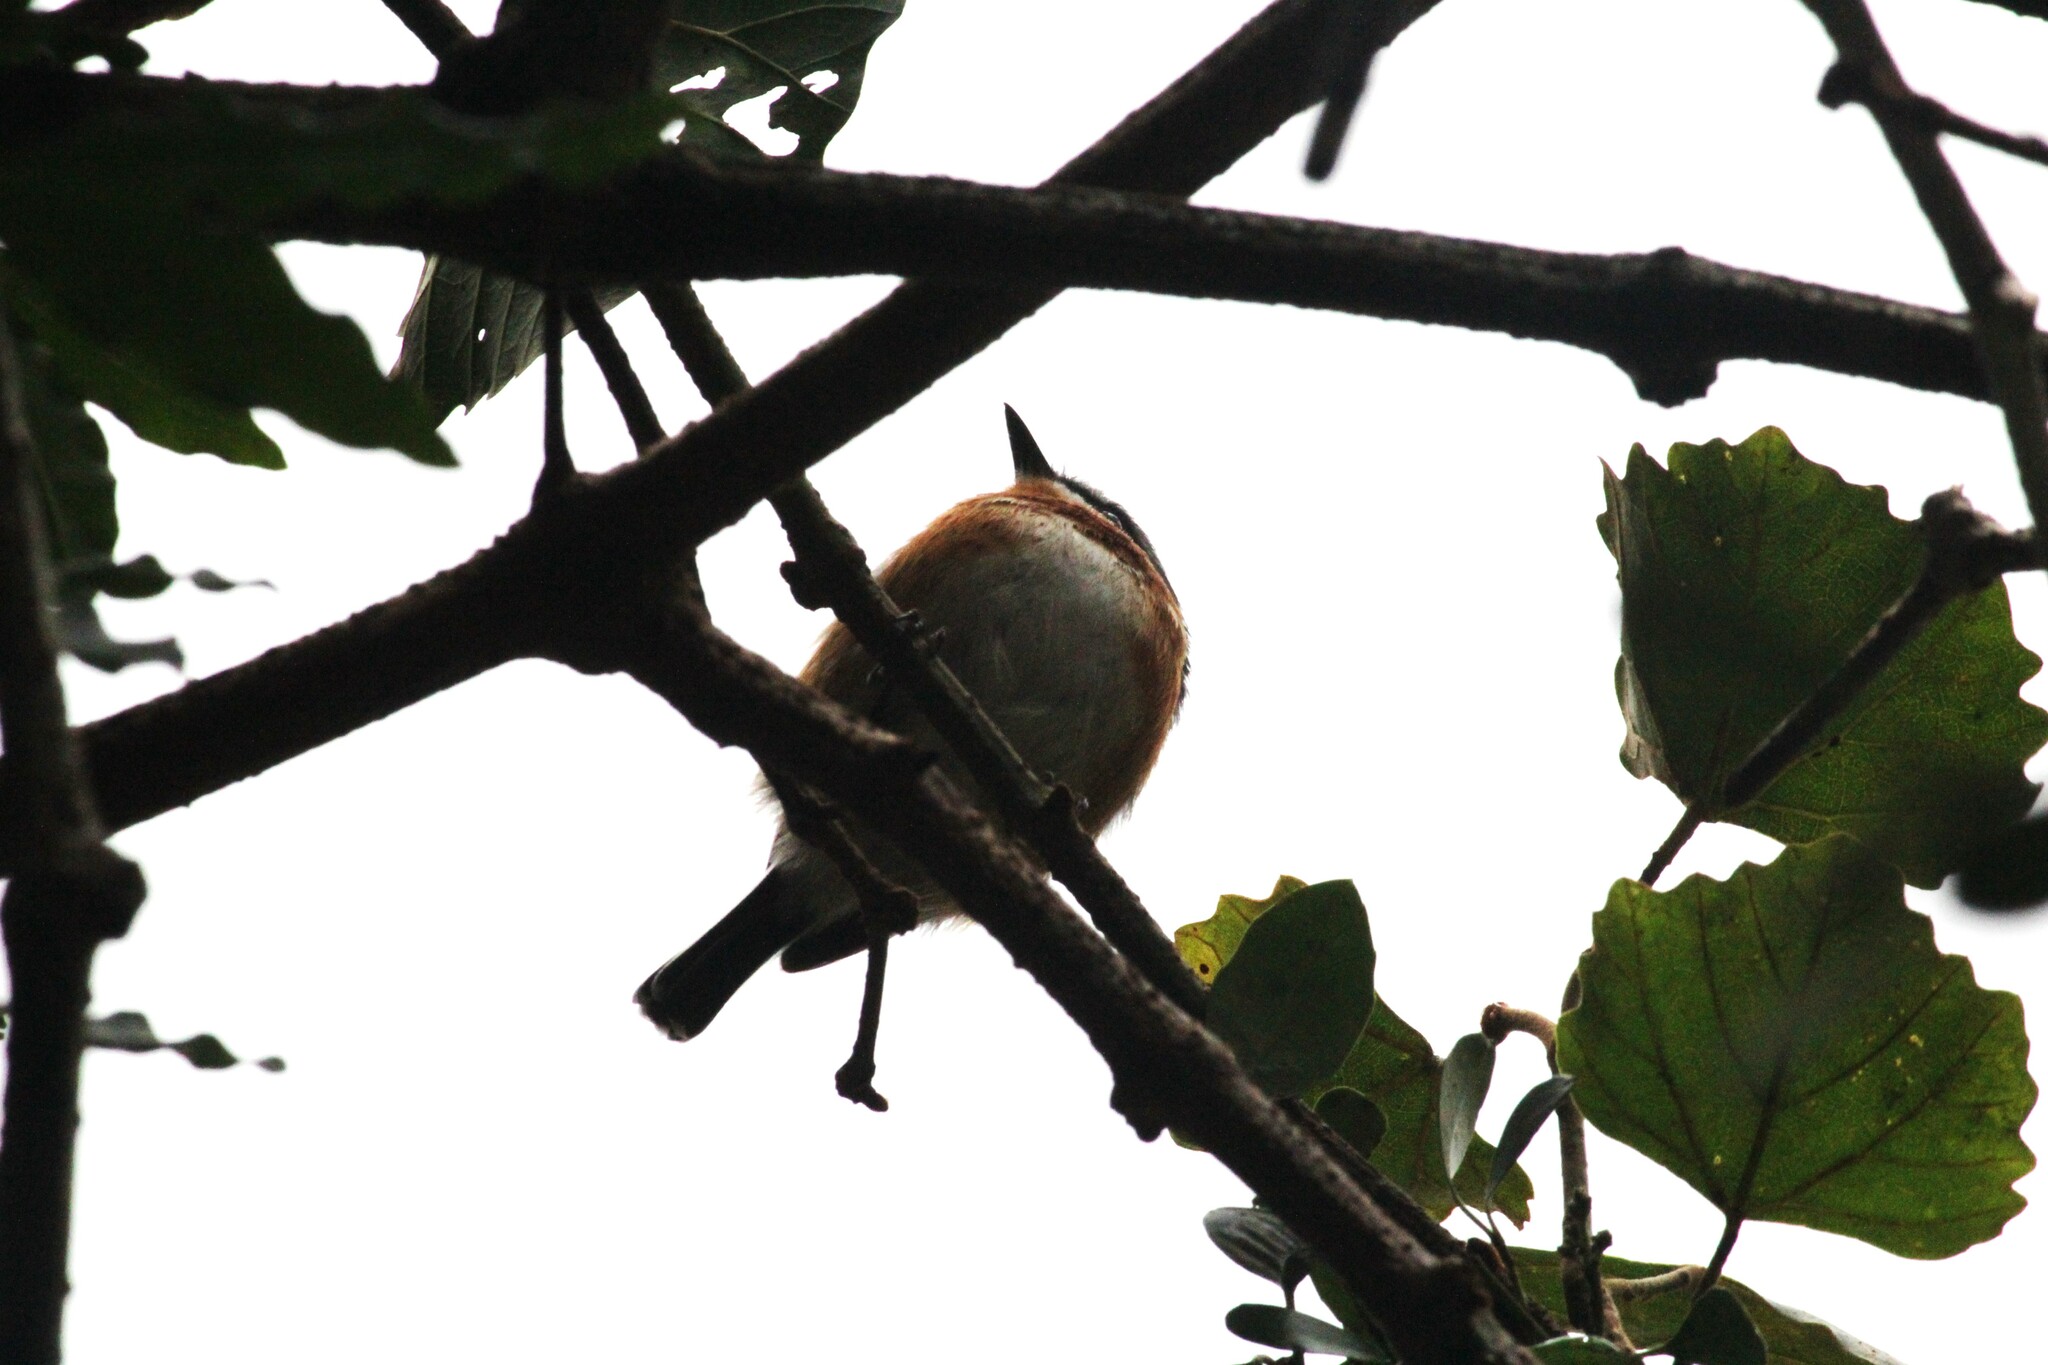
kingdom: Animalia
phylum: Chordata
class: Aves
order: Passeriformes
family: Platysteiridae
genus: Batis
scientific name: Batis capensis
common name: Cape batis
